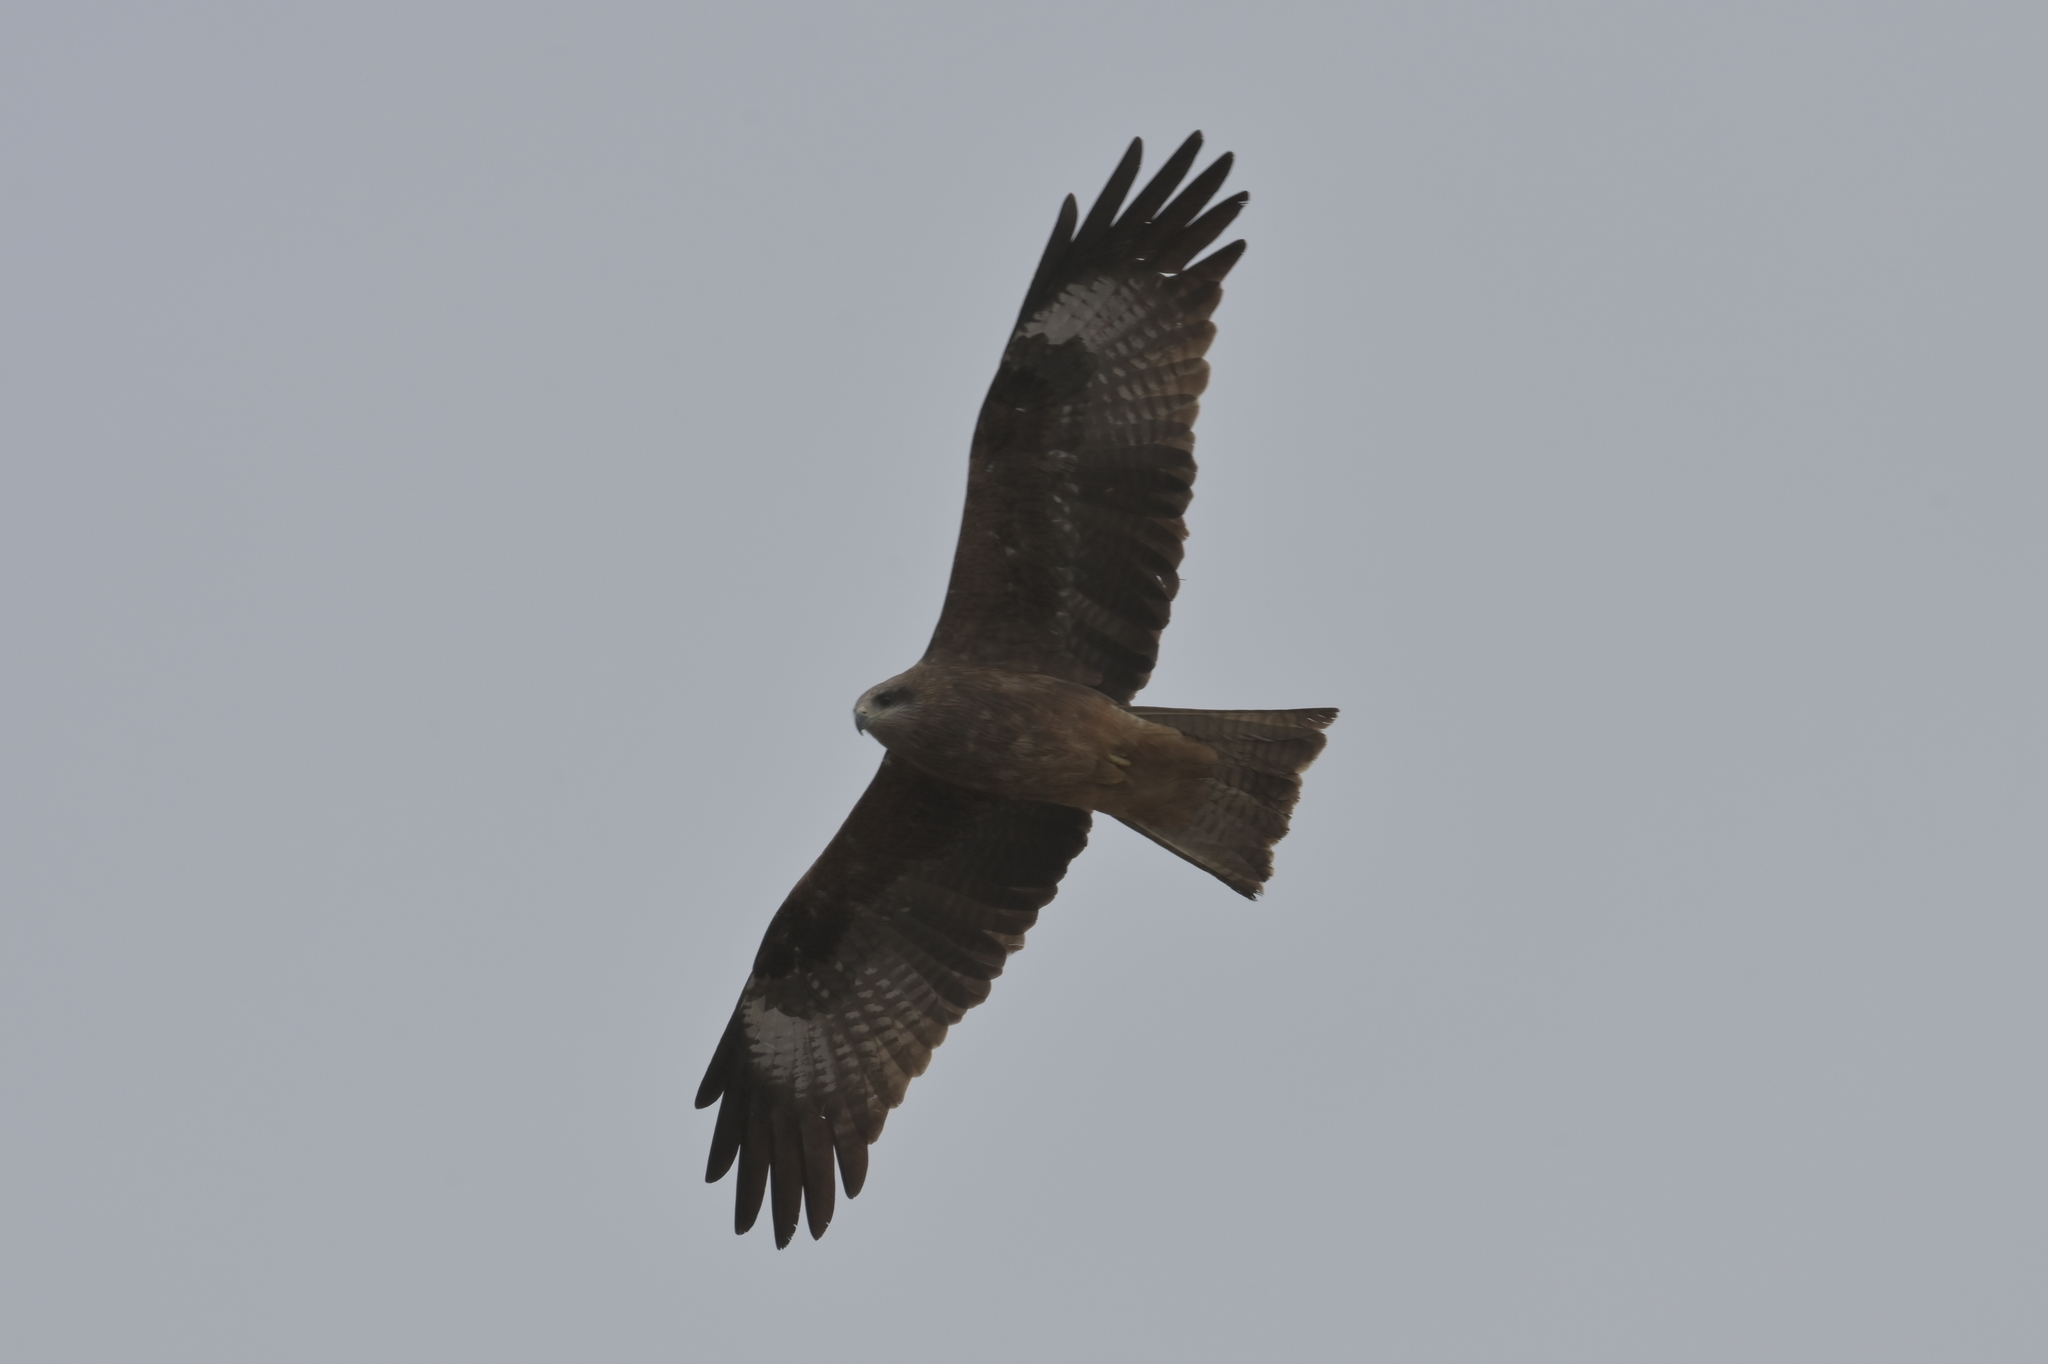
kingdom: Animalia
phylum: Chordata
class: Aves
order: Accipitriformes
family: Accipitridae
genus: Milvus
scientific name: Milvus migrans
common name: Black kite
